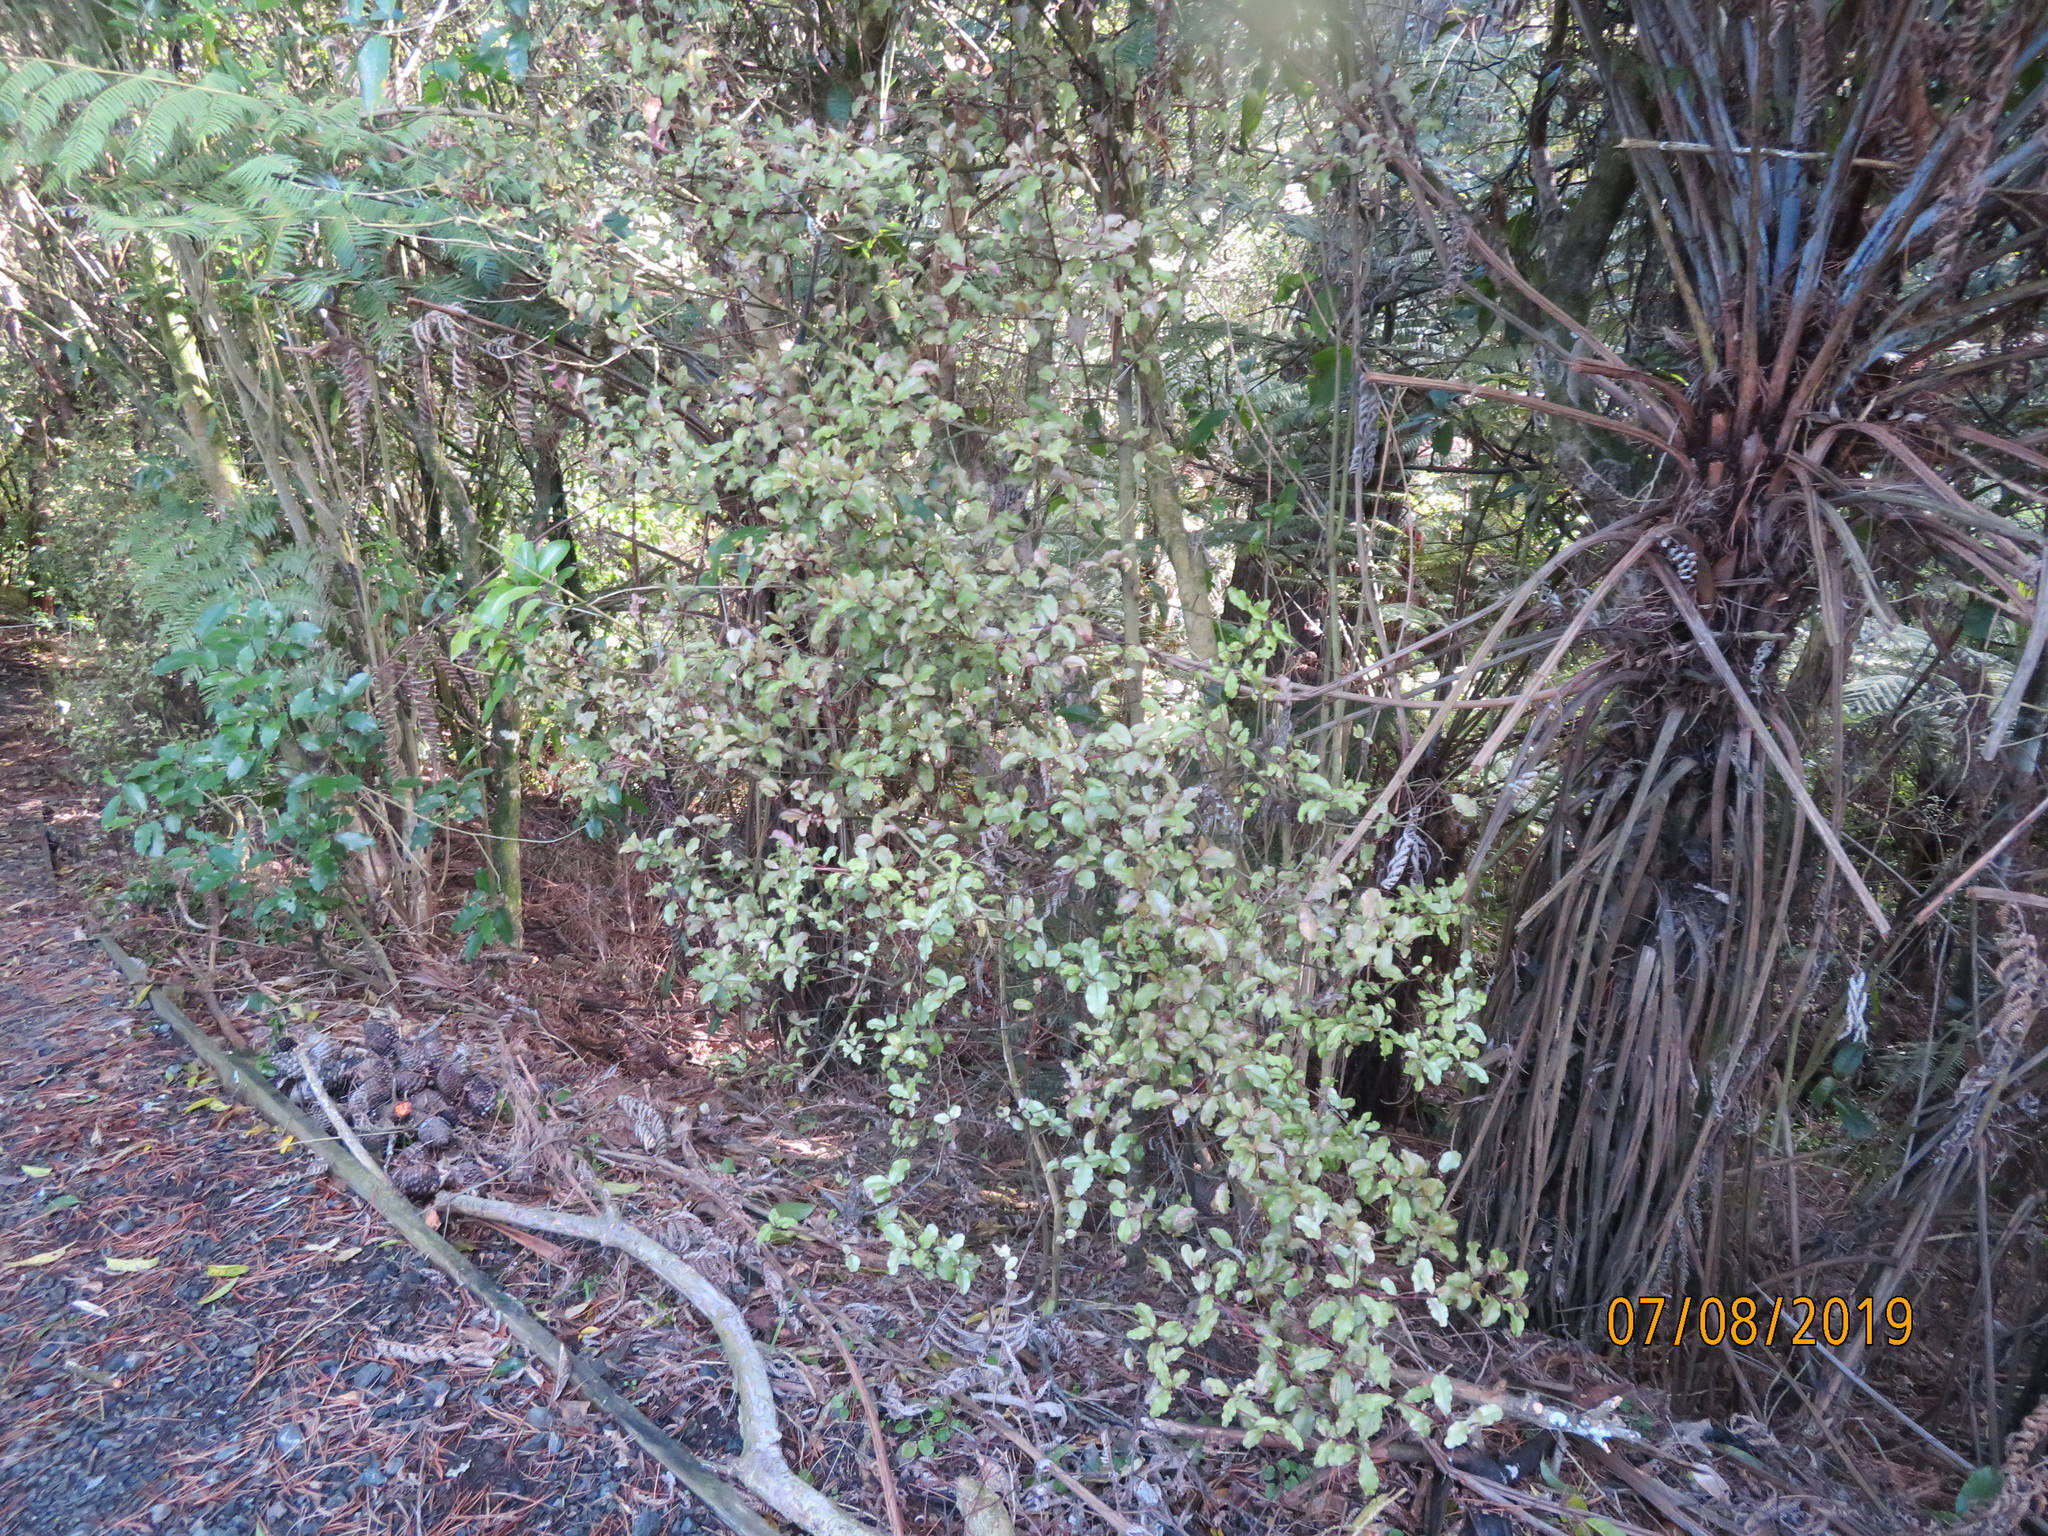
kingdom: Plantae
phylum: Tracheophyta
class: Magnoliopsida
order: Ericales
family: Primulaceae
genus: Myrsine
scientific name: Myrsine australis
